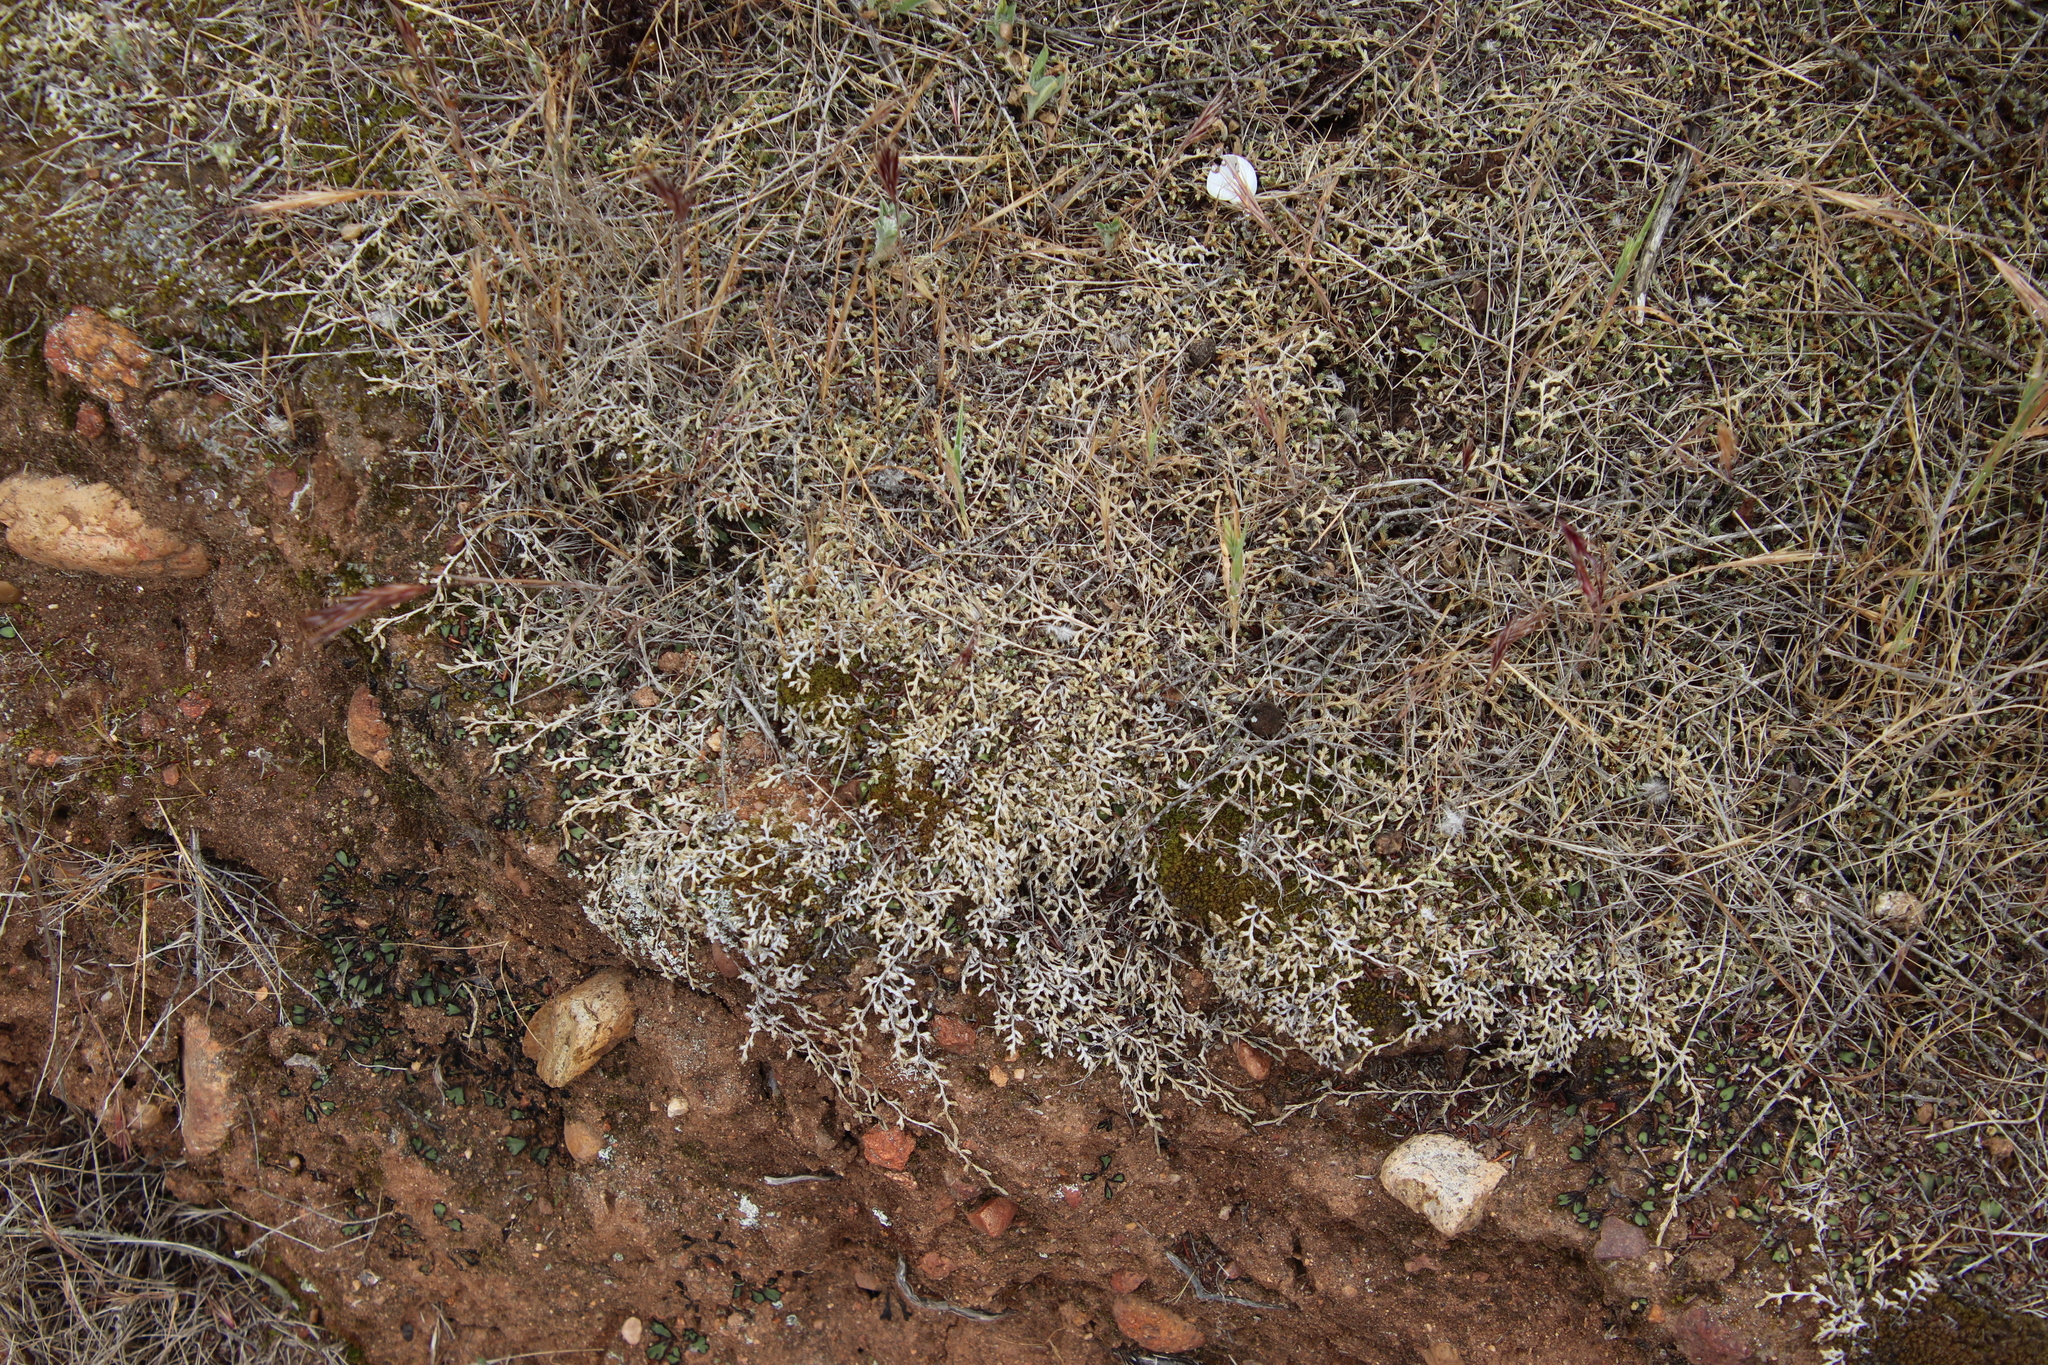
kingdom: Plantae
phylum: Tracheophyta
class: Lycopodiopsida
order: Selaginellales
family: Selaginellaceae
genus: Selaginella
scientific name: Selaginella cinerascens
